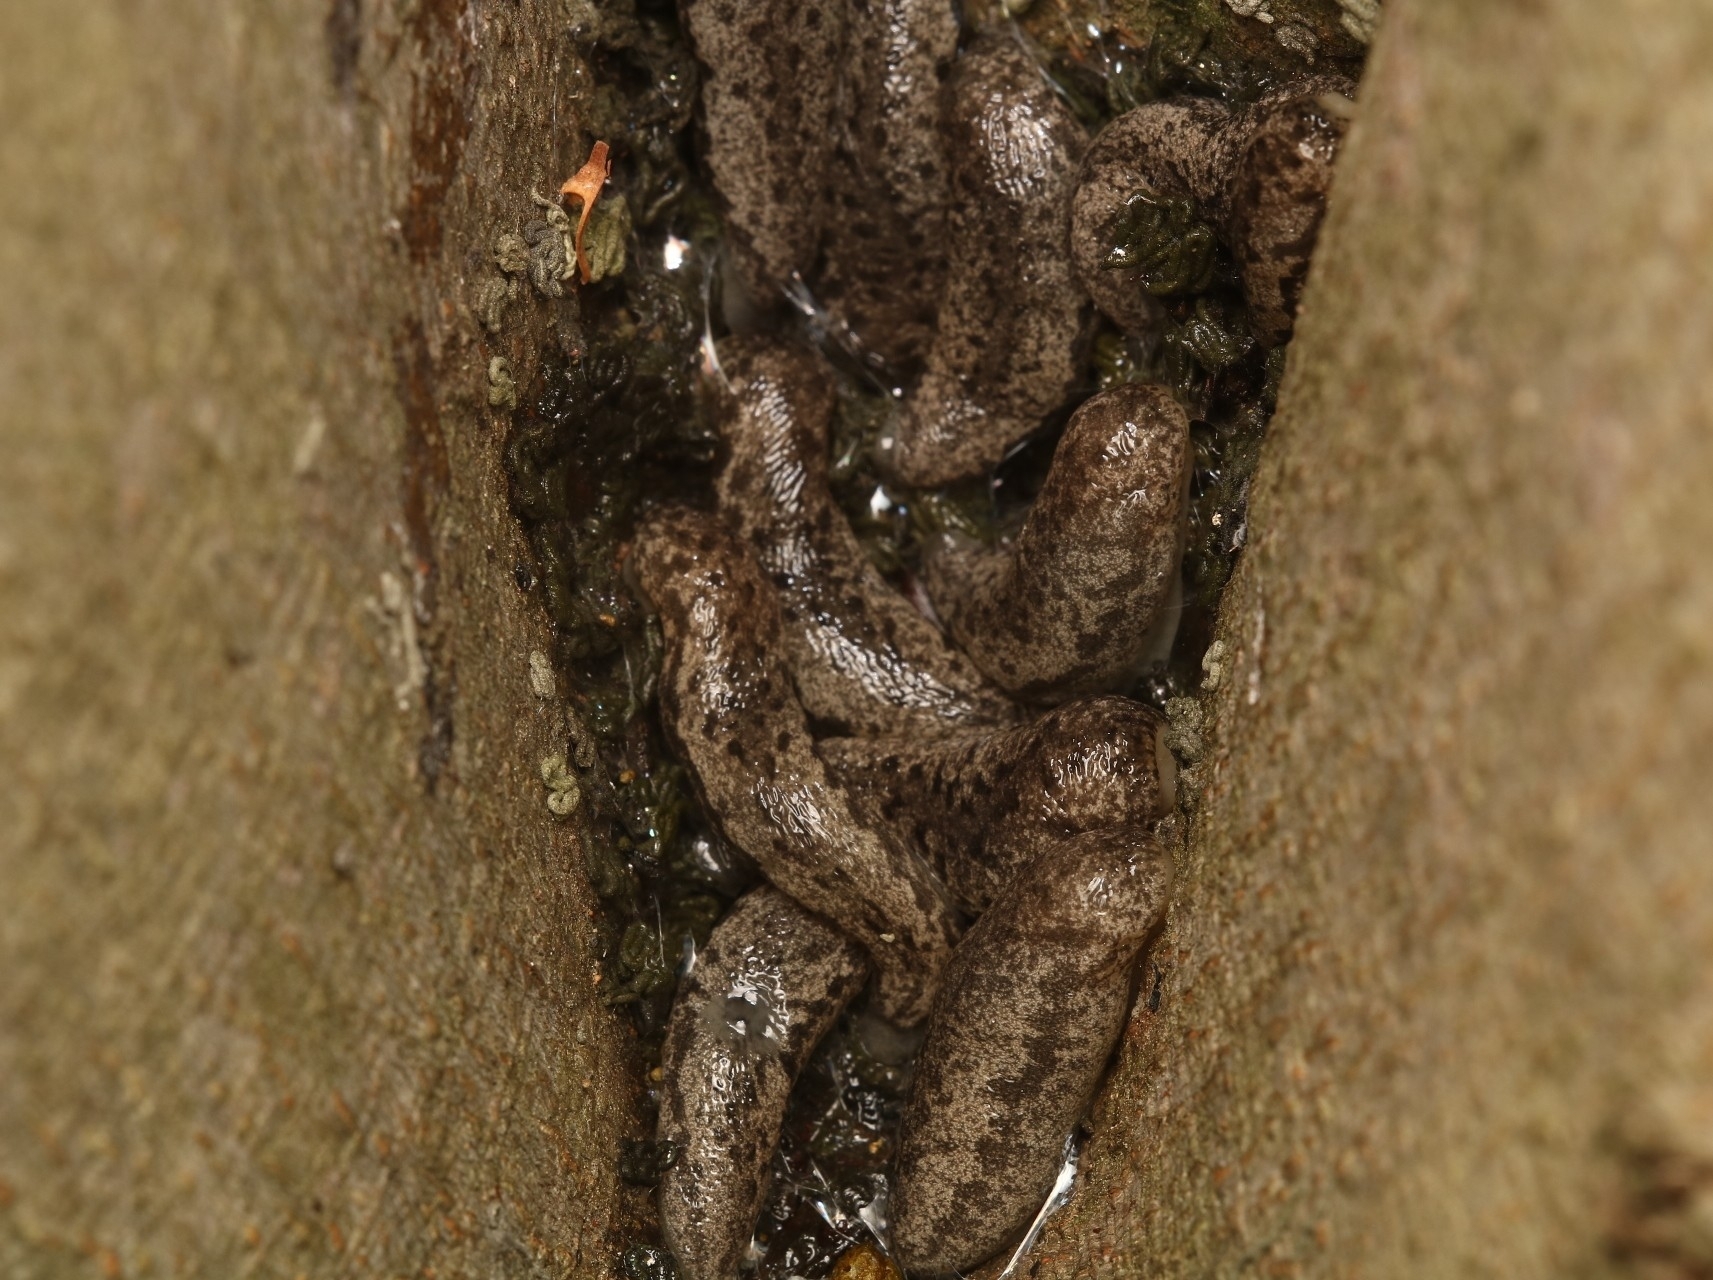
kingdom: Animalia
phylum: Mollusca
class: Gastropoda
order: Stylommatophora
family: Philomycidae
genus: Megapallifera
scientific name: Megapallifera mutabilis
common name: Changeable mantleslug
